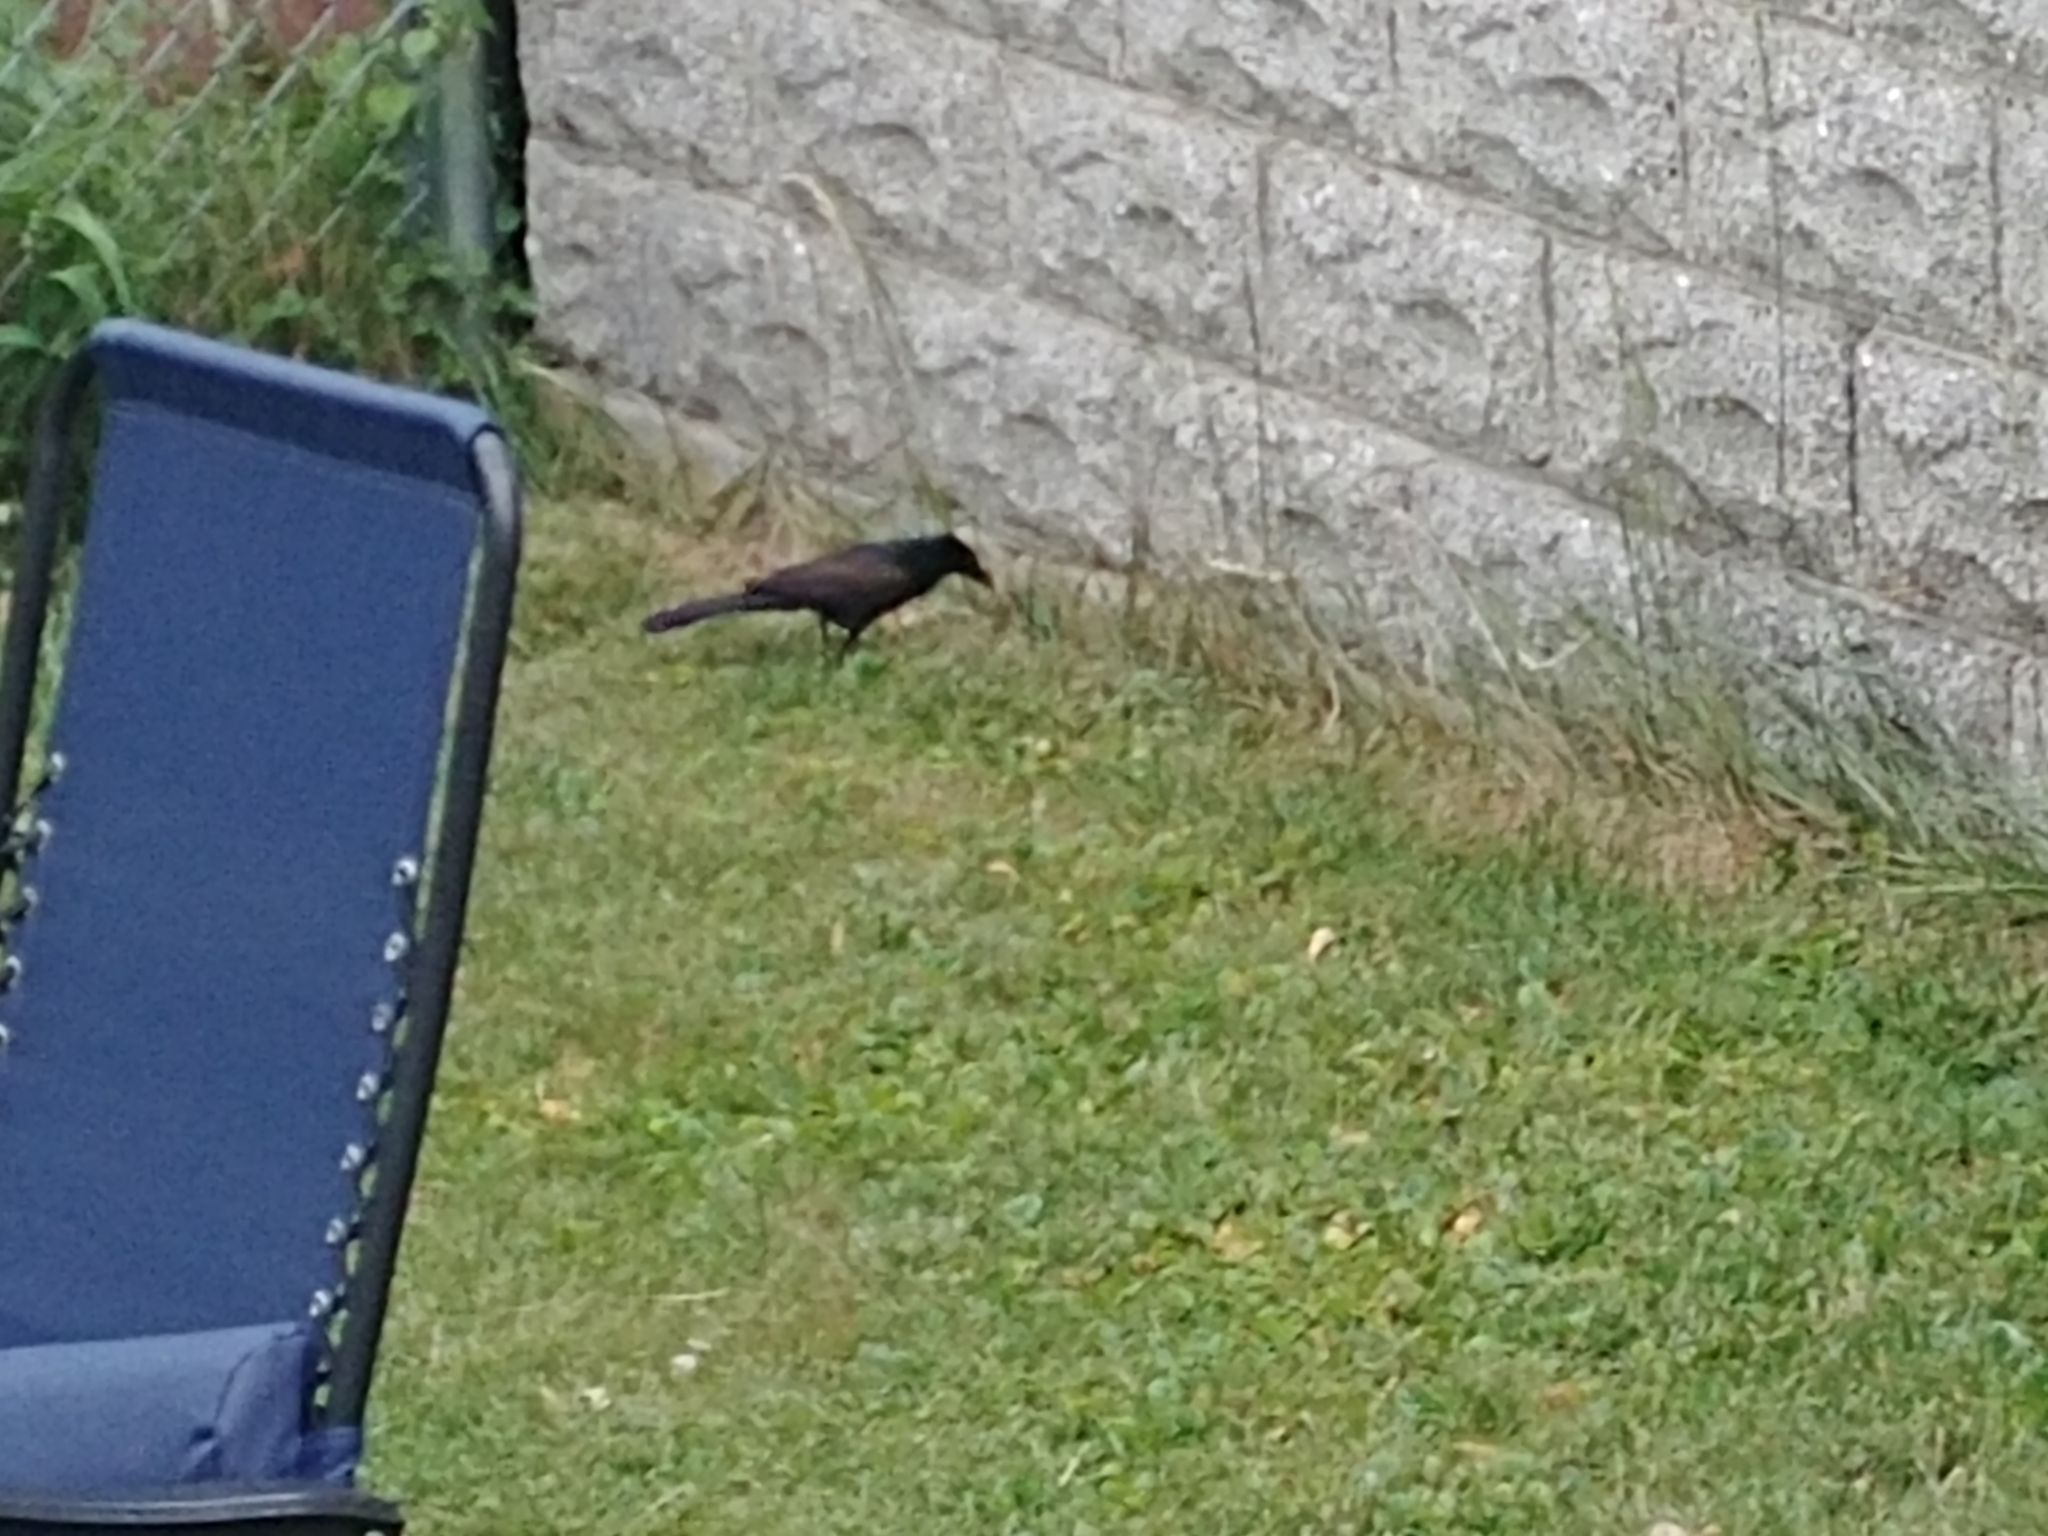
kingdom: Animalia
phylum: Chordata
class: Aves
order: Passeriformes
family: Icteridae
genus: Quiscalus
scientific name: Quiscalus quiscula
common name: Common grackle
